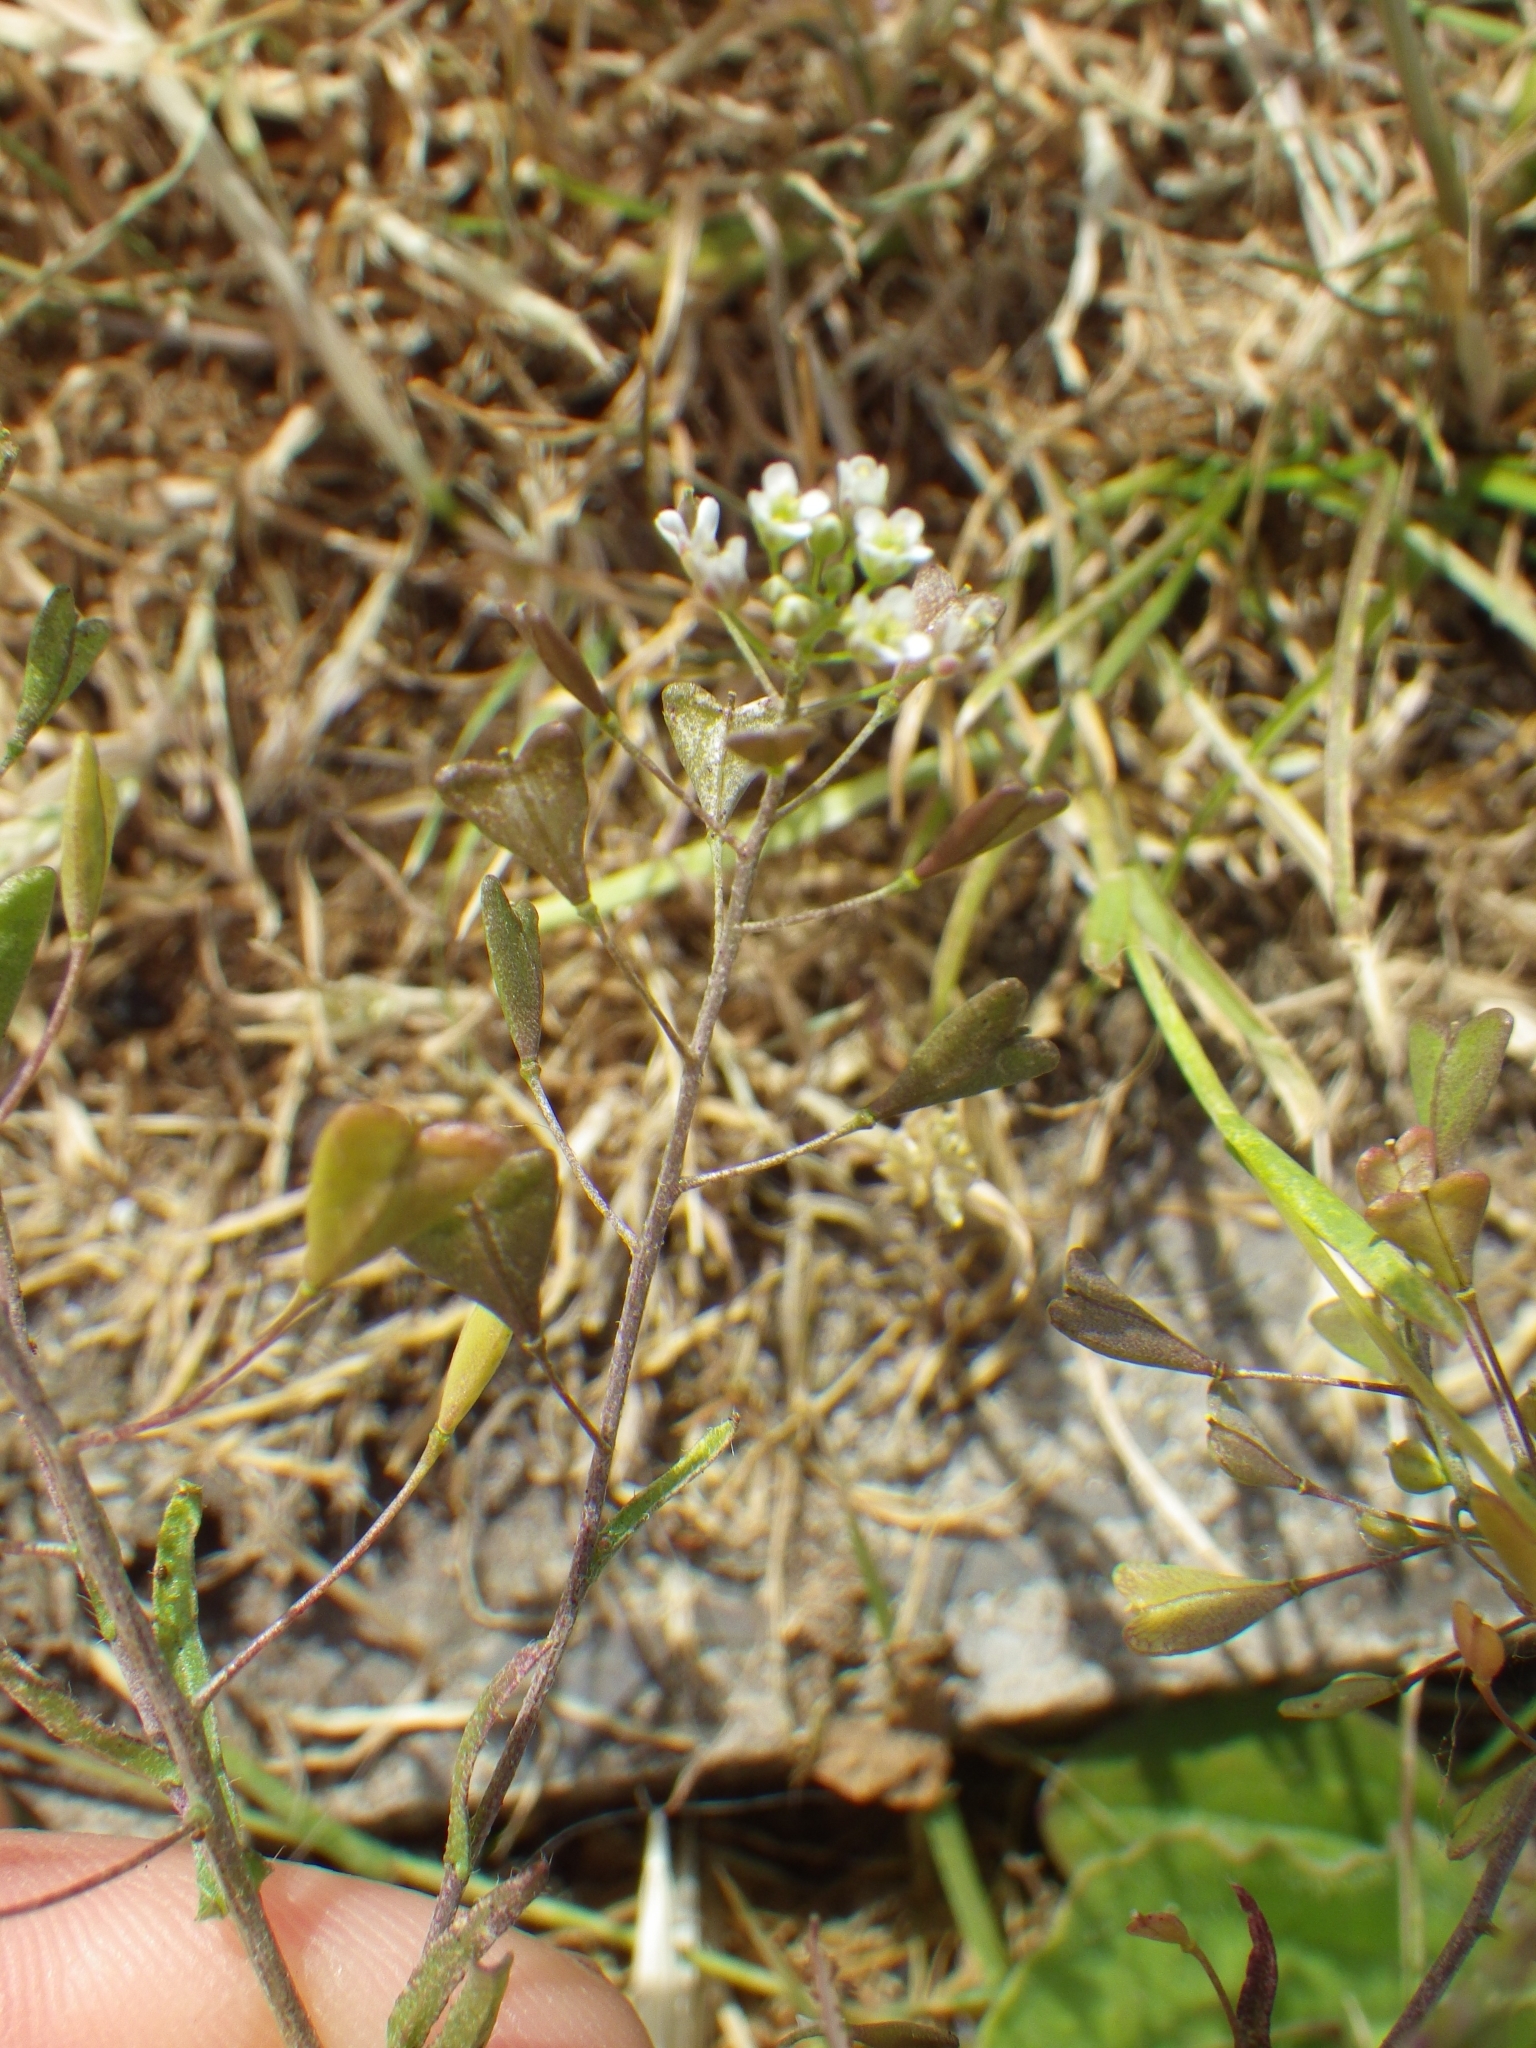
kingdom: Plantae
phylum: Tracheophyta
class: Magnoliopsida
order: Brassicales
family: Brassicaceae
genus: Capsella
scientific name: Capsella bursa-pastoris
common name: Shepherd's purse
